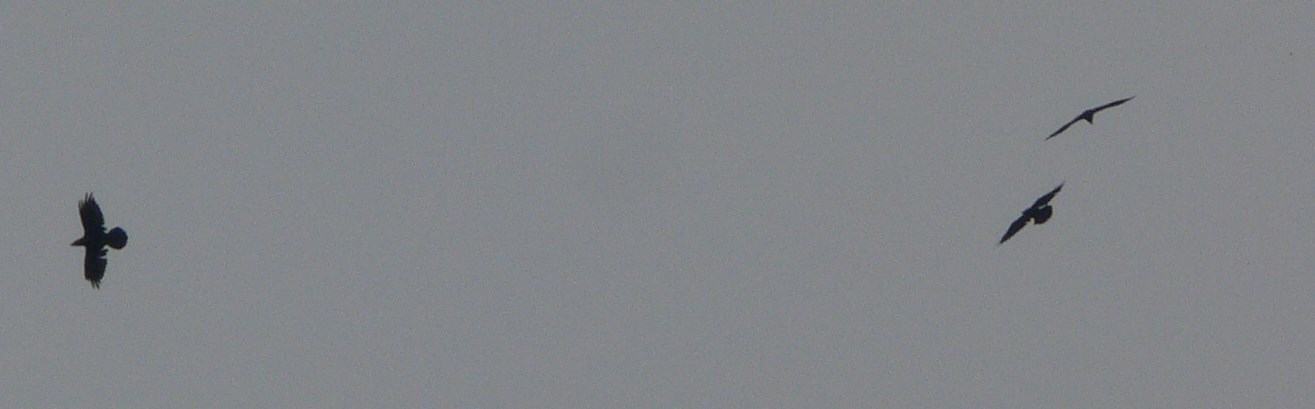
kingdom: Animalia
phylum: Chordata
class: Aves
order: Passeriformes
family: Corvidae
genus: Corvus
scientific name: Corvus corax
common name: Common raven
